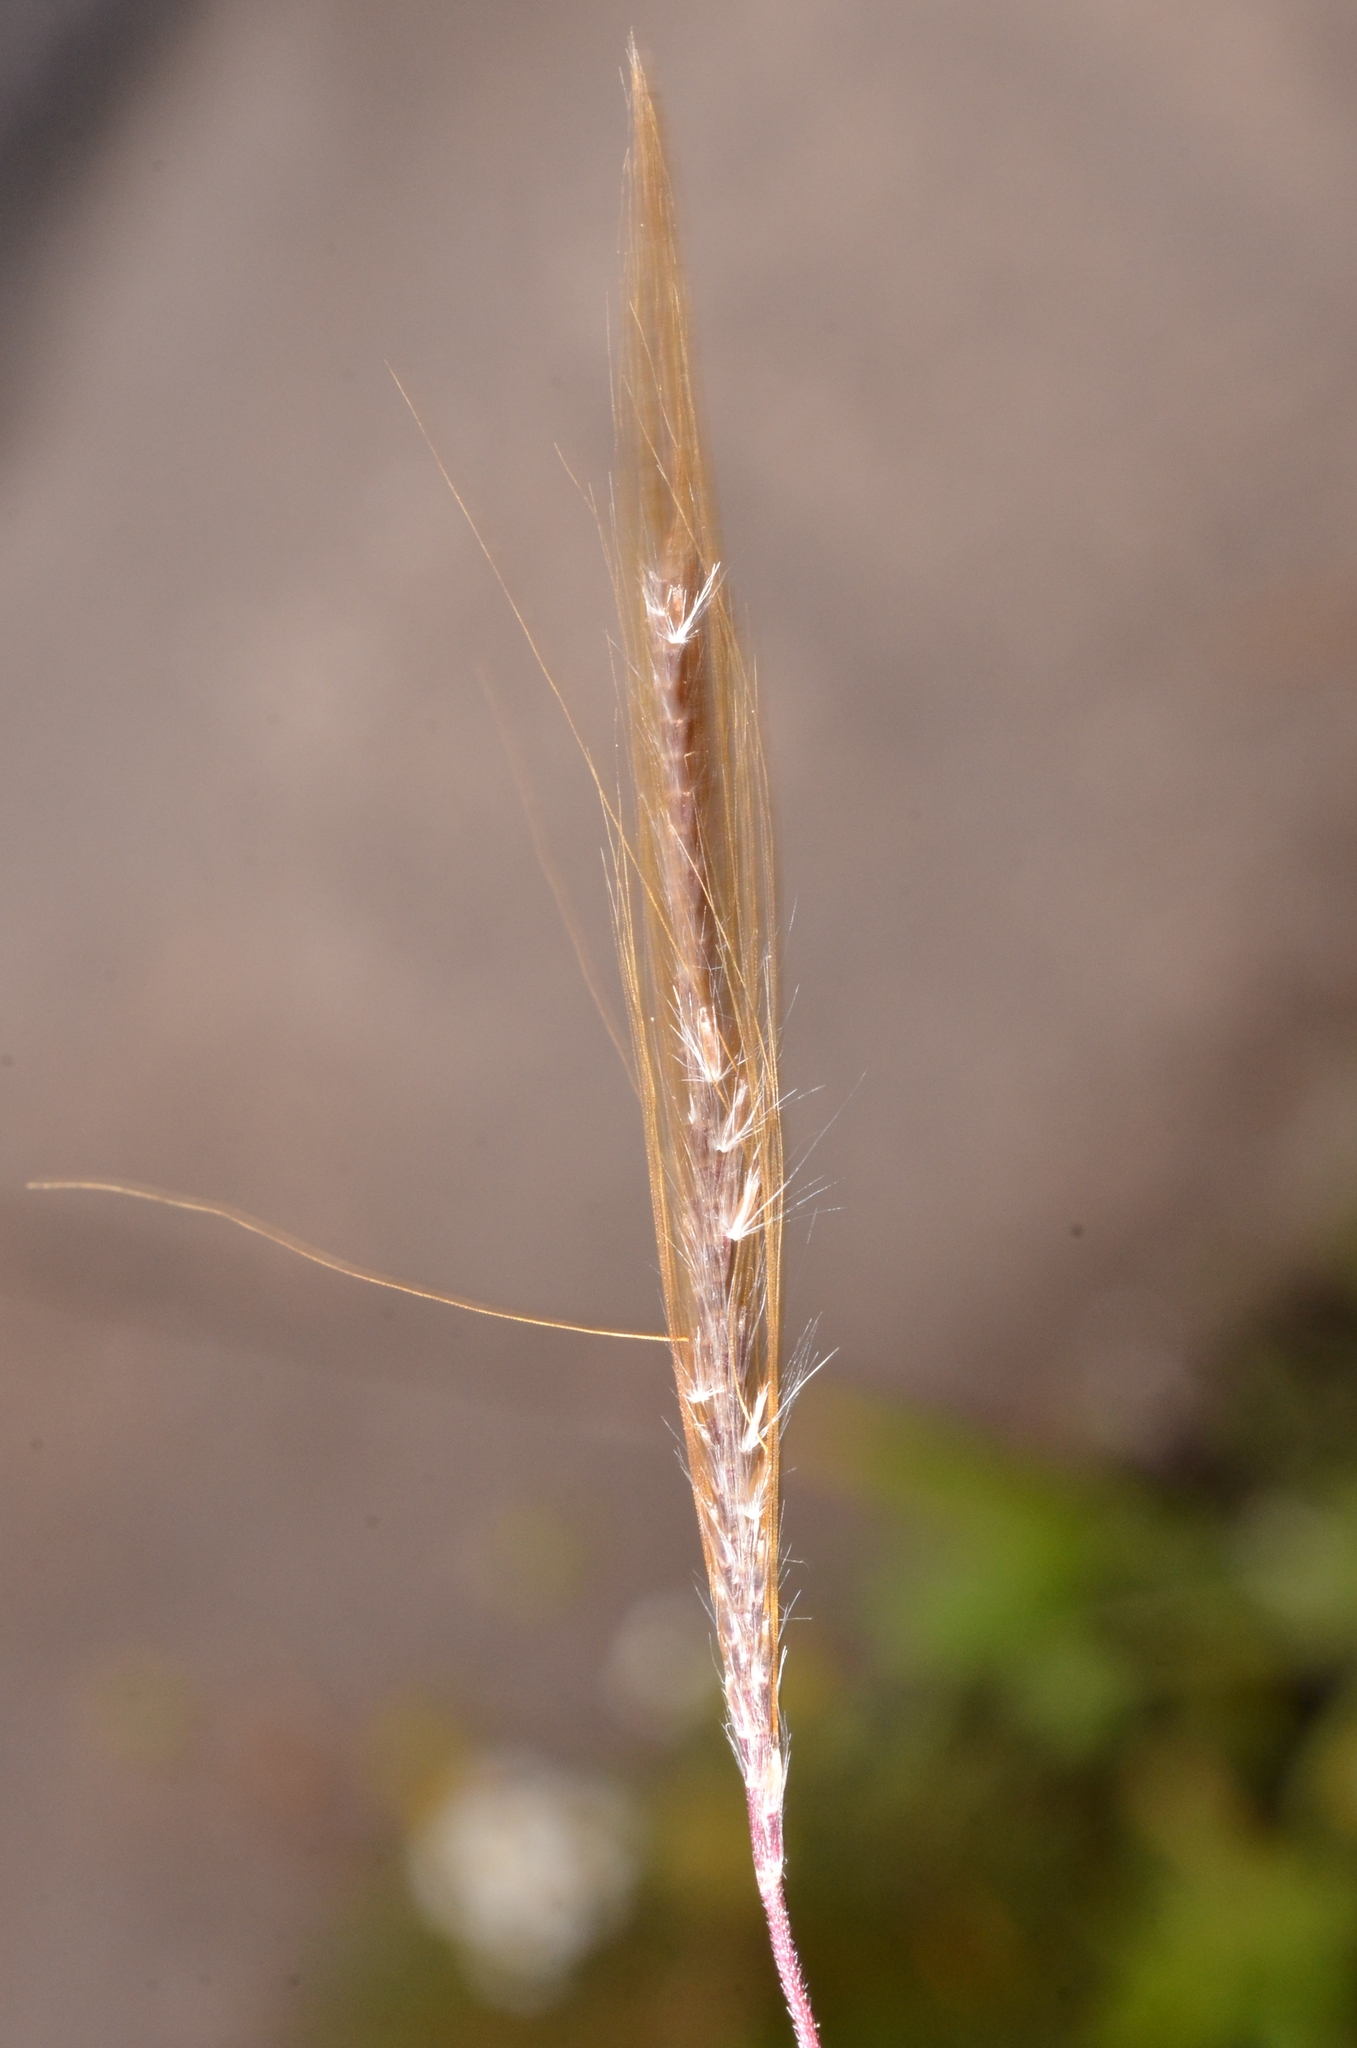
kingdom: Plantae
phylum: Tracheophyta
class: Liliopsida
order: Poales
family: Poaceae
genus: Pogonatherum
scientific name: Pogonatherum crinitum
